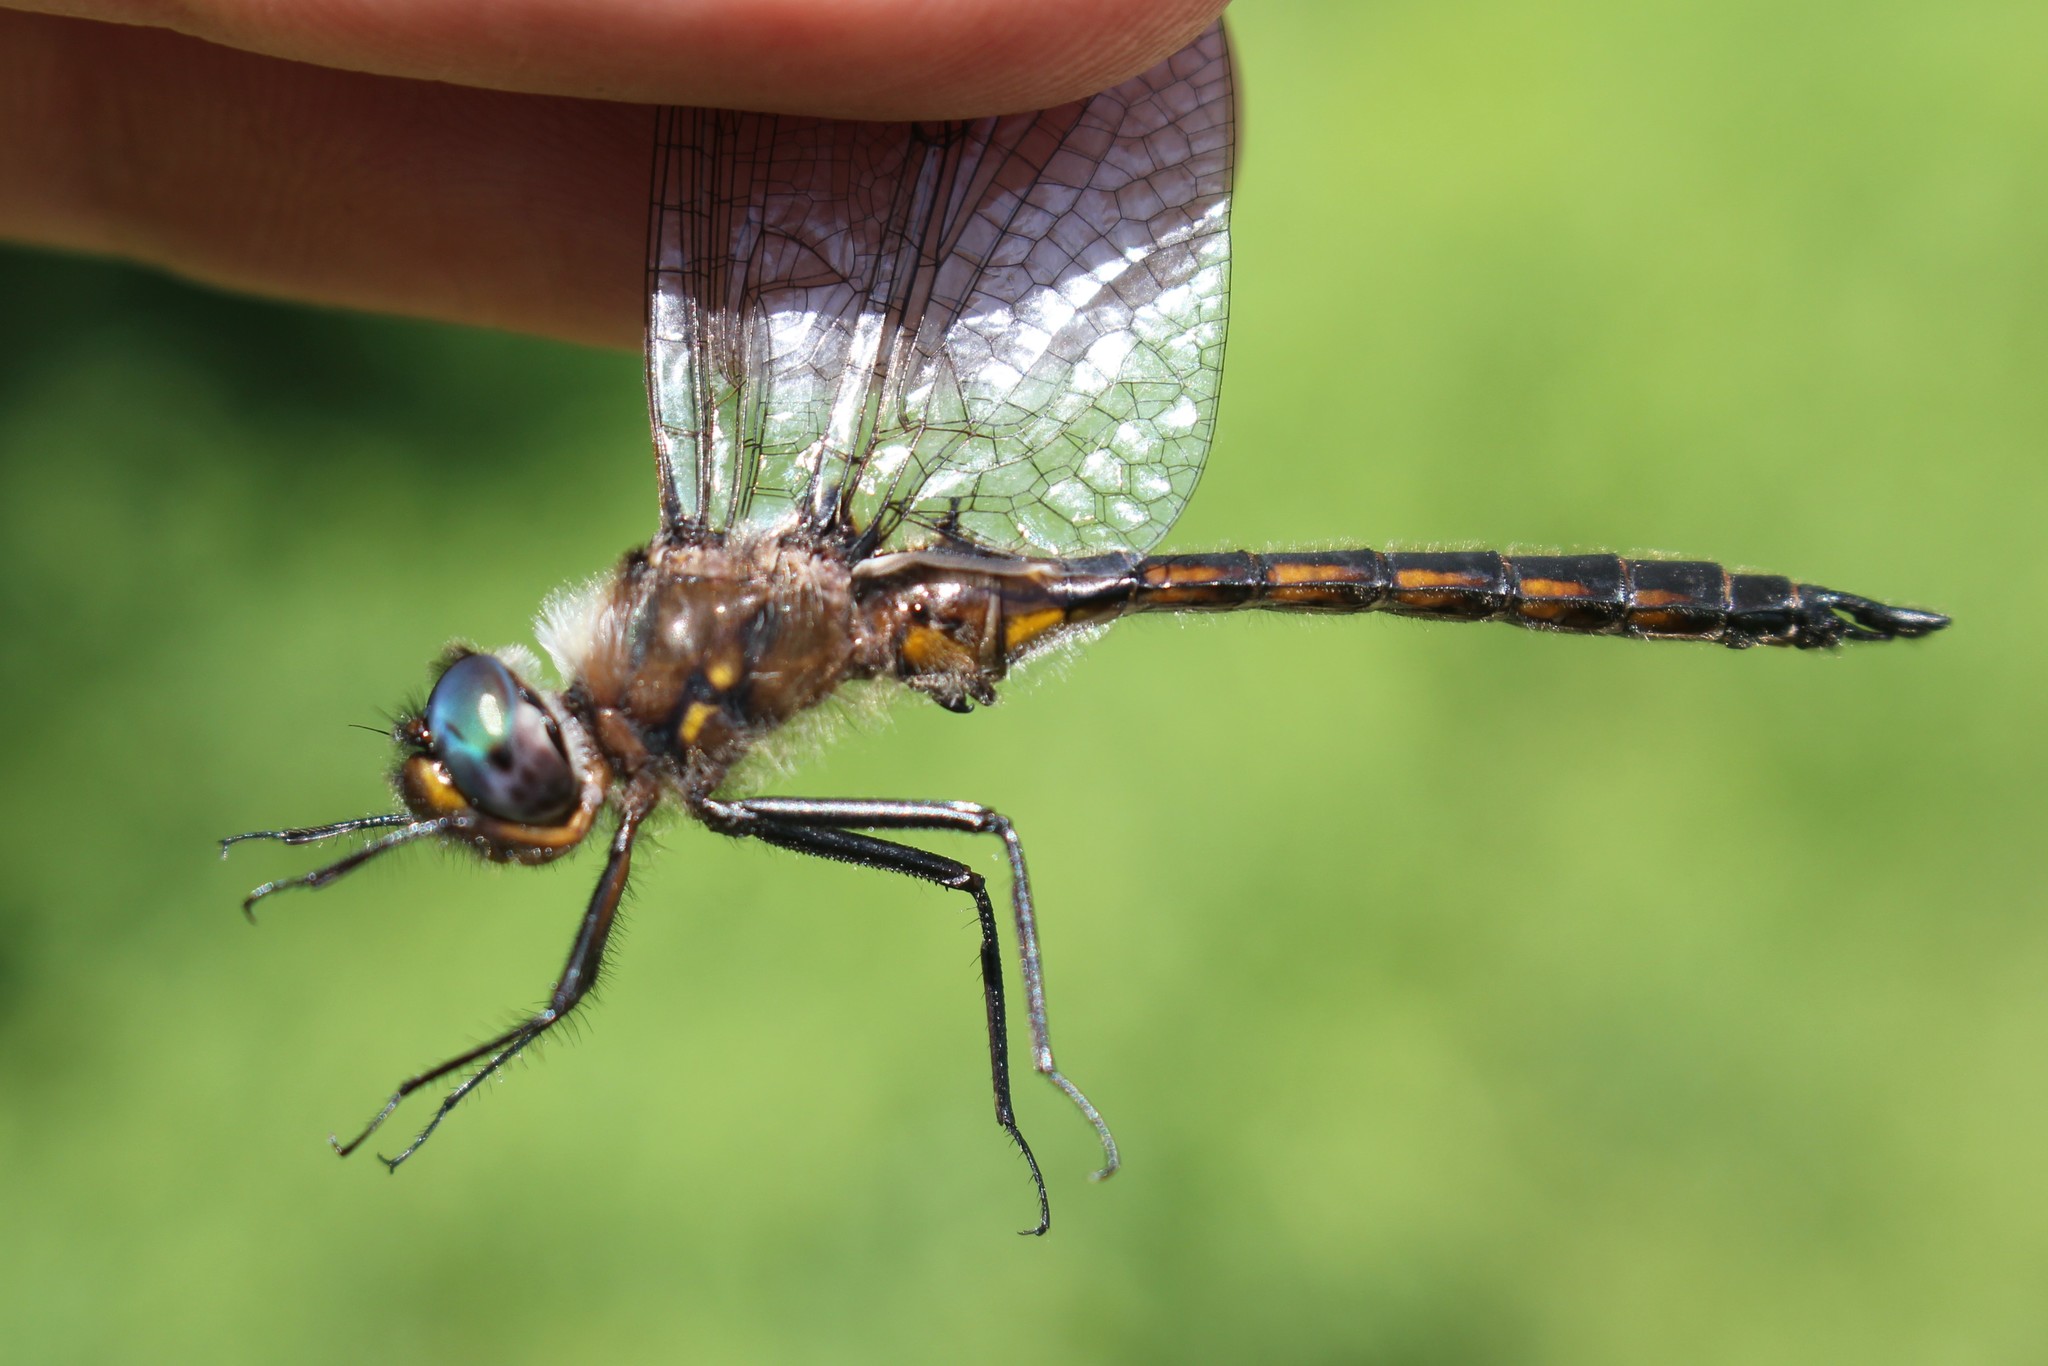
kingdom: Animalia
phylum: Arthropoda
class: Insecta
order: Odonata
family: Corduliidae
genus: Epitheca
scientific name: Epitheca cynosura
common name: Common baskettail
